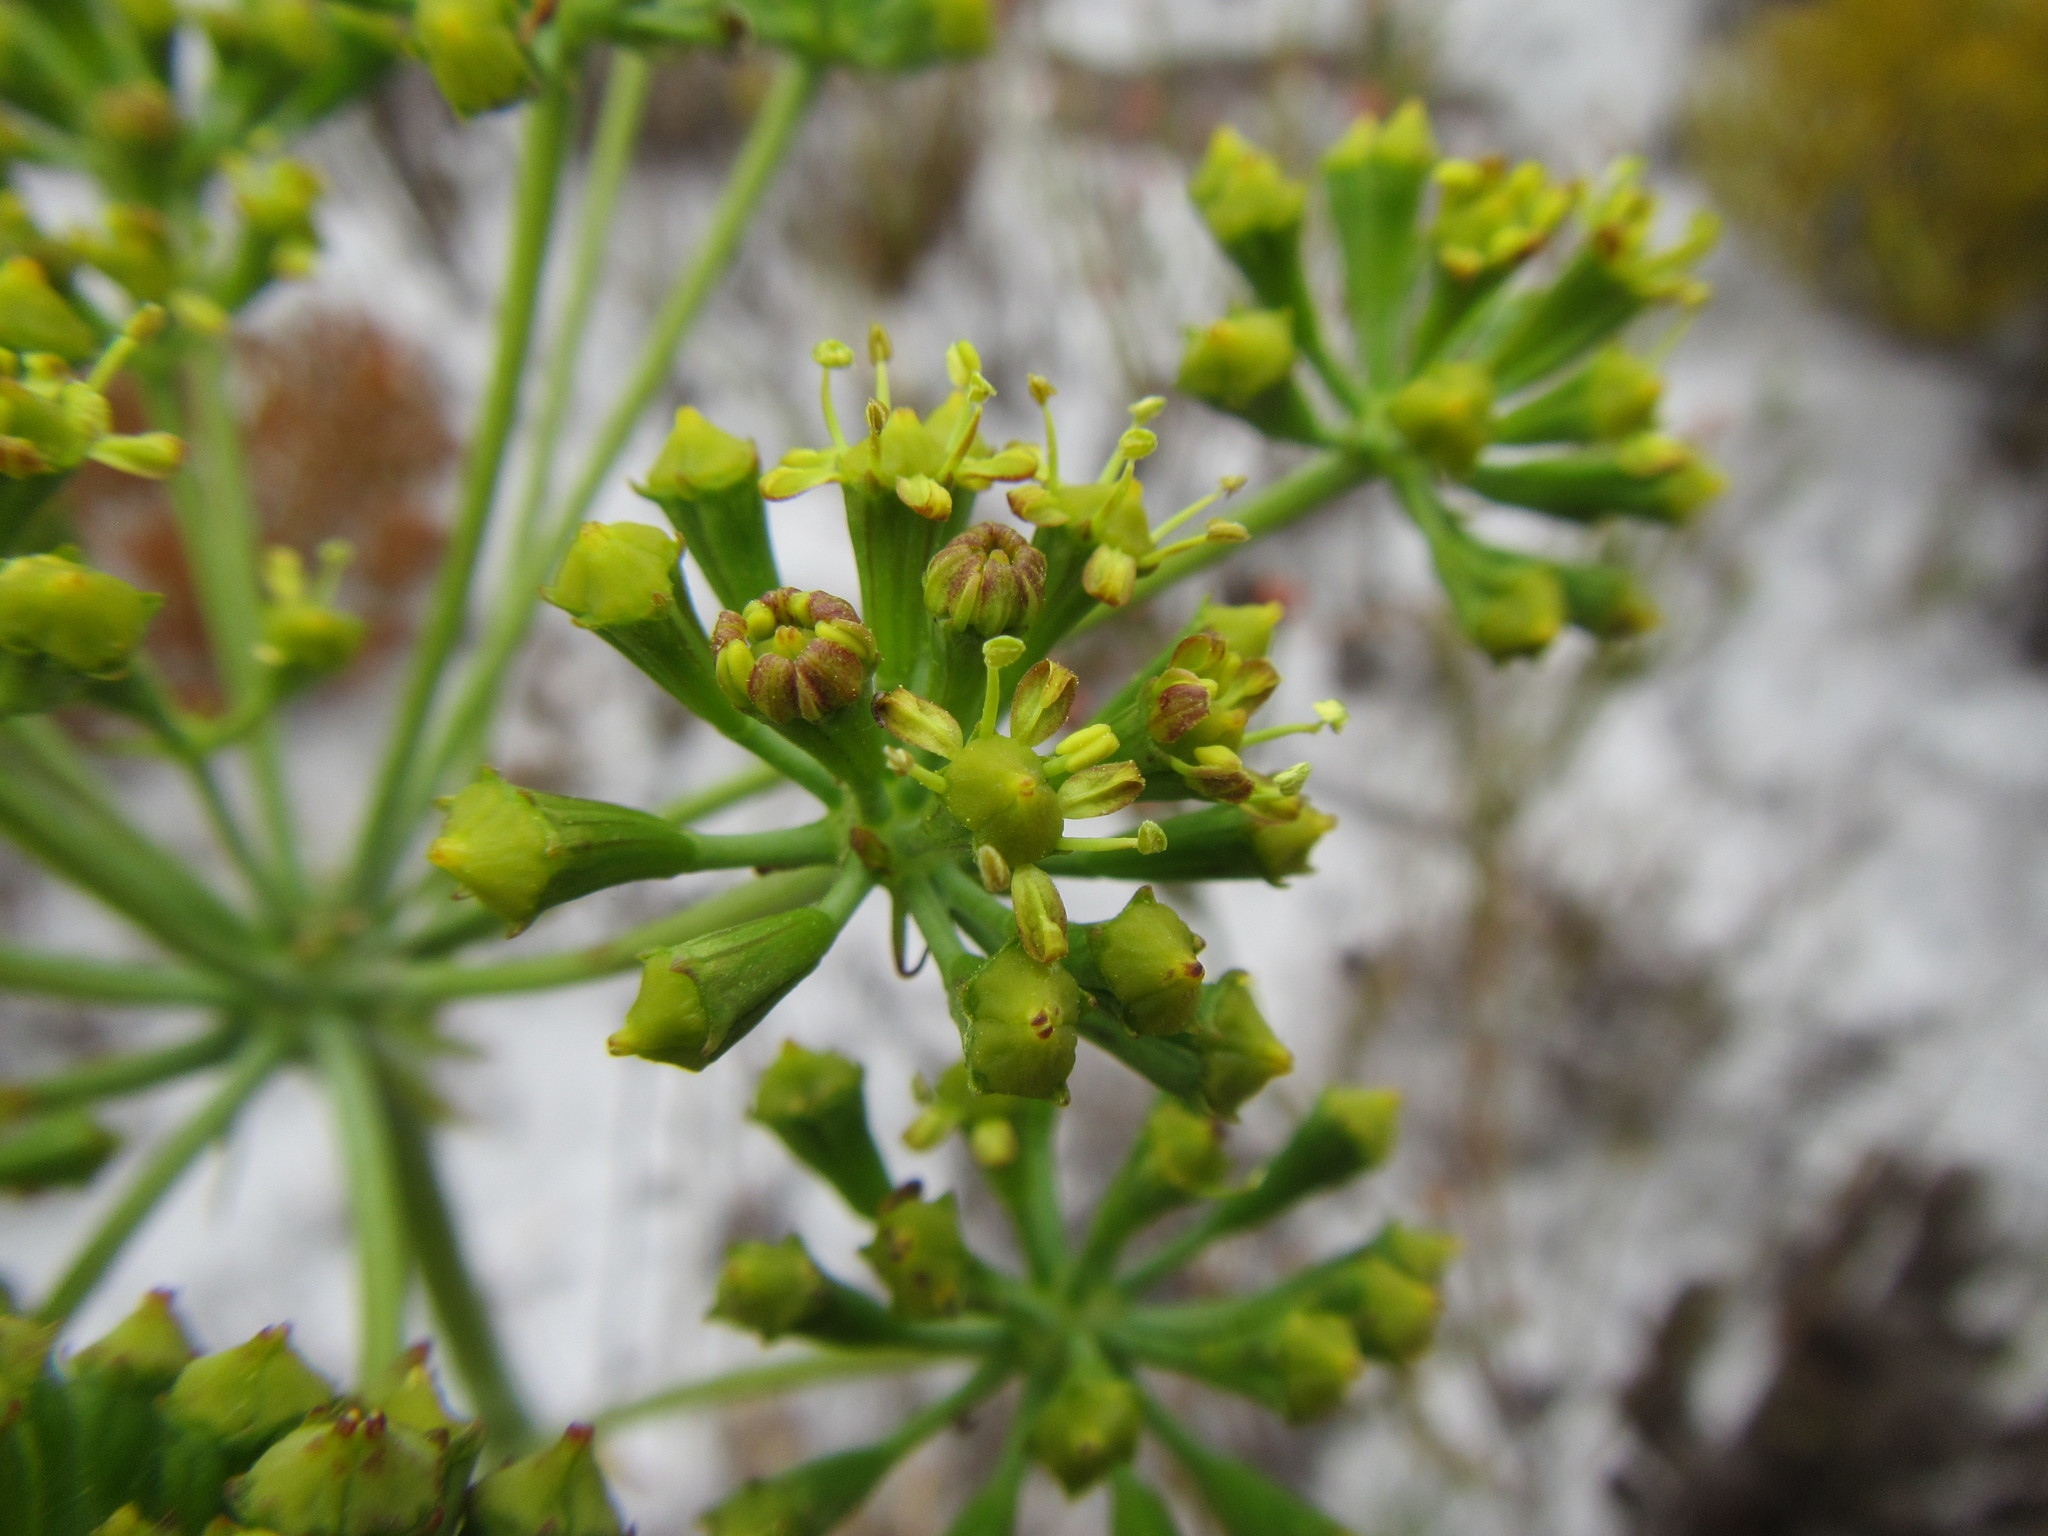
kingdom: Plantae
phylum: Tracheophyta
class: Magnoliopsida
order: Apiales
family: Apiaceae
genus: Lichtensteinia
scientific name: Lichtensteinia lacera
